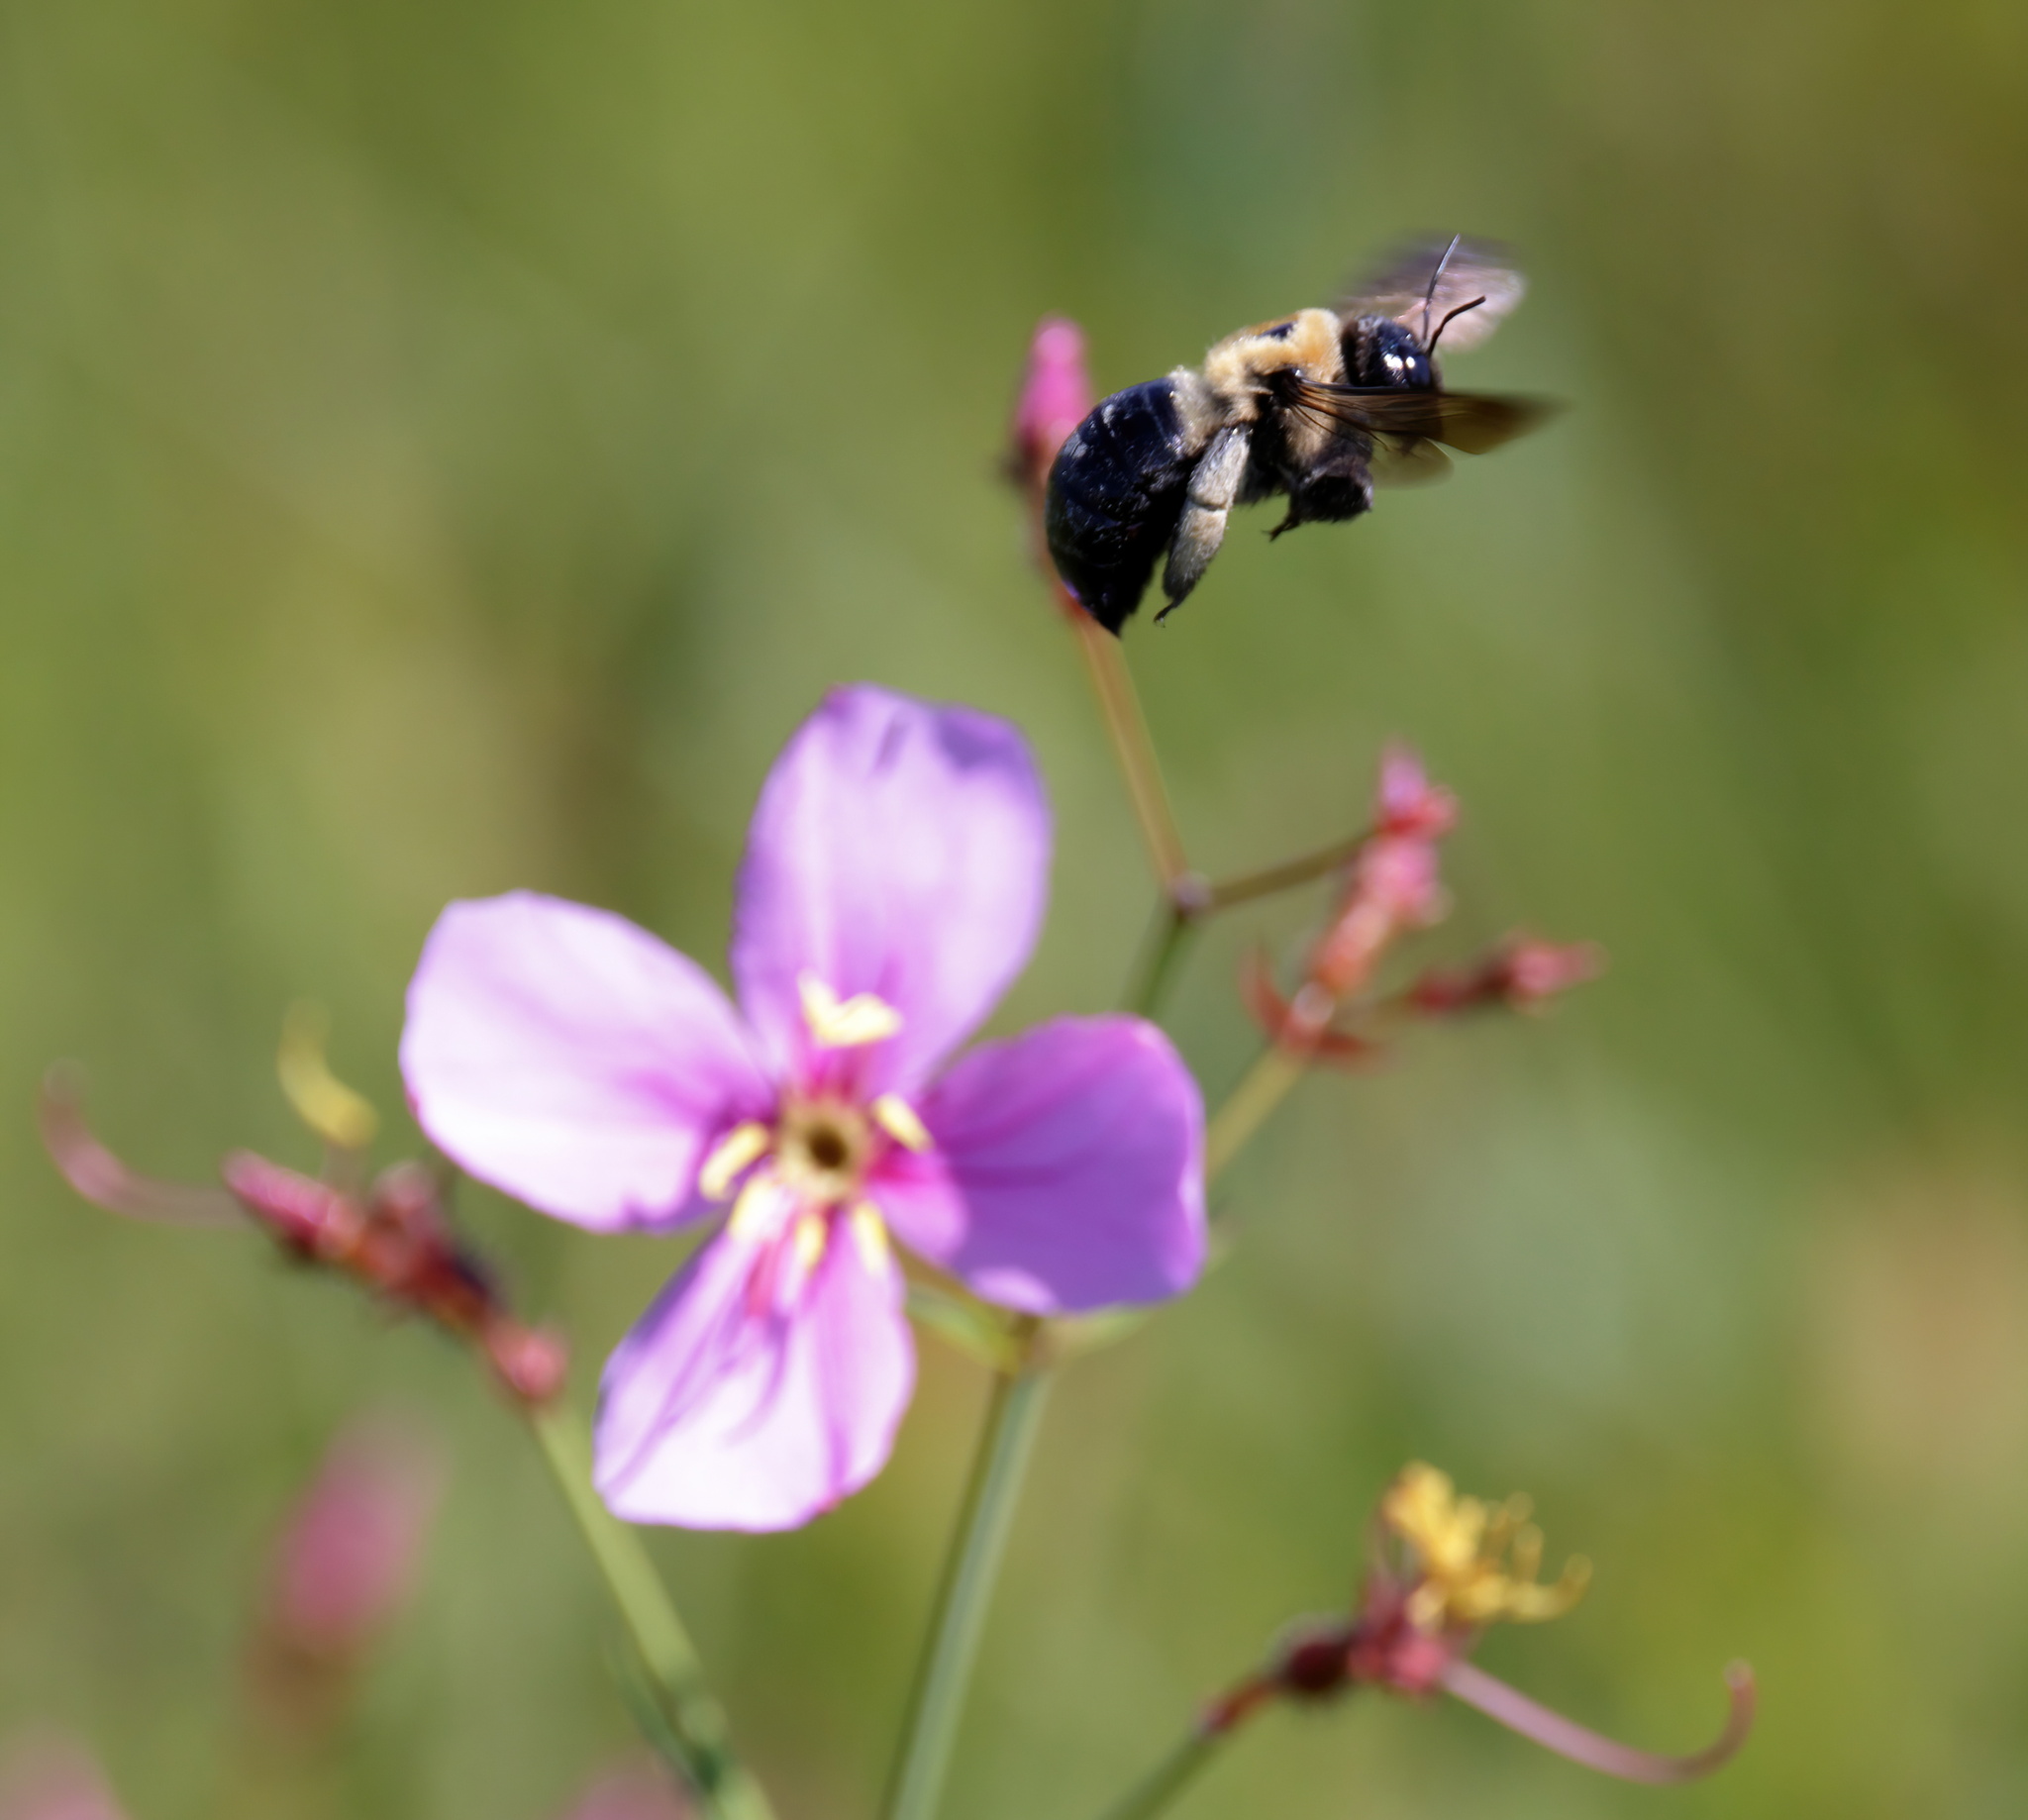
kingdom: Animalia
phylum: Arthropoda
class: Insecta
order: Hymenoptera
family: Apidae
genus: Xylocopa
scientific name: Xylocopa virginica
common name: Carpenter bee
